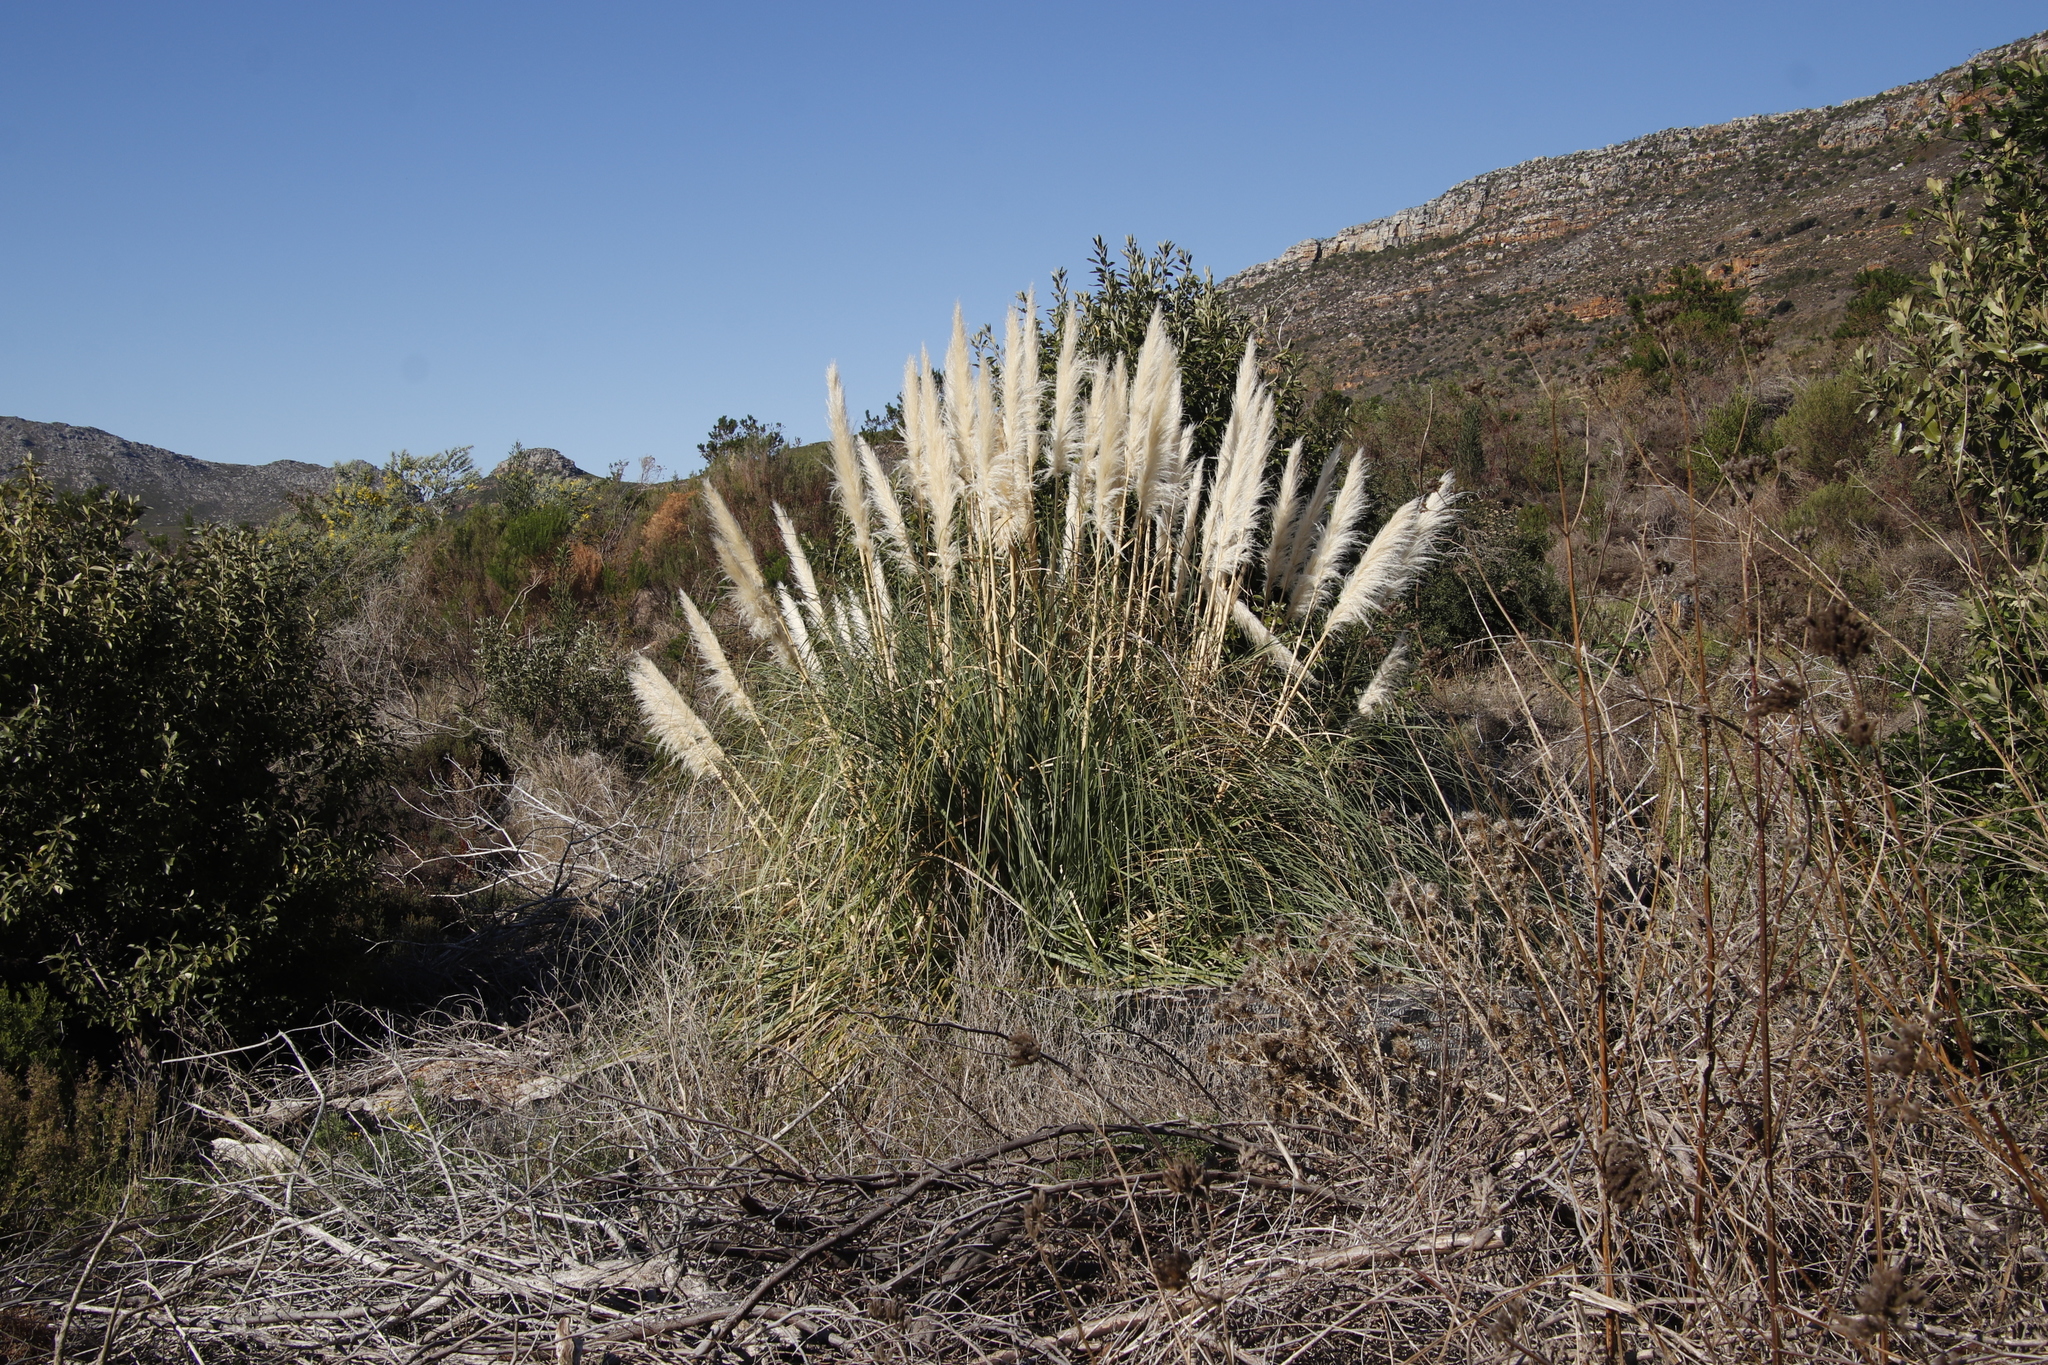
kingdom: Plantae
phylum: Tracheophyta
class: Liliopsida
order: Poales
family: Poaceae
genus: Cortaderia
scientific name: Cortaderia selloana
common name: Uruguayan pampas grass
